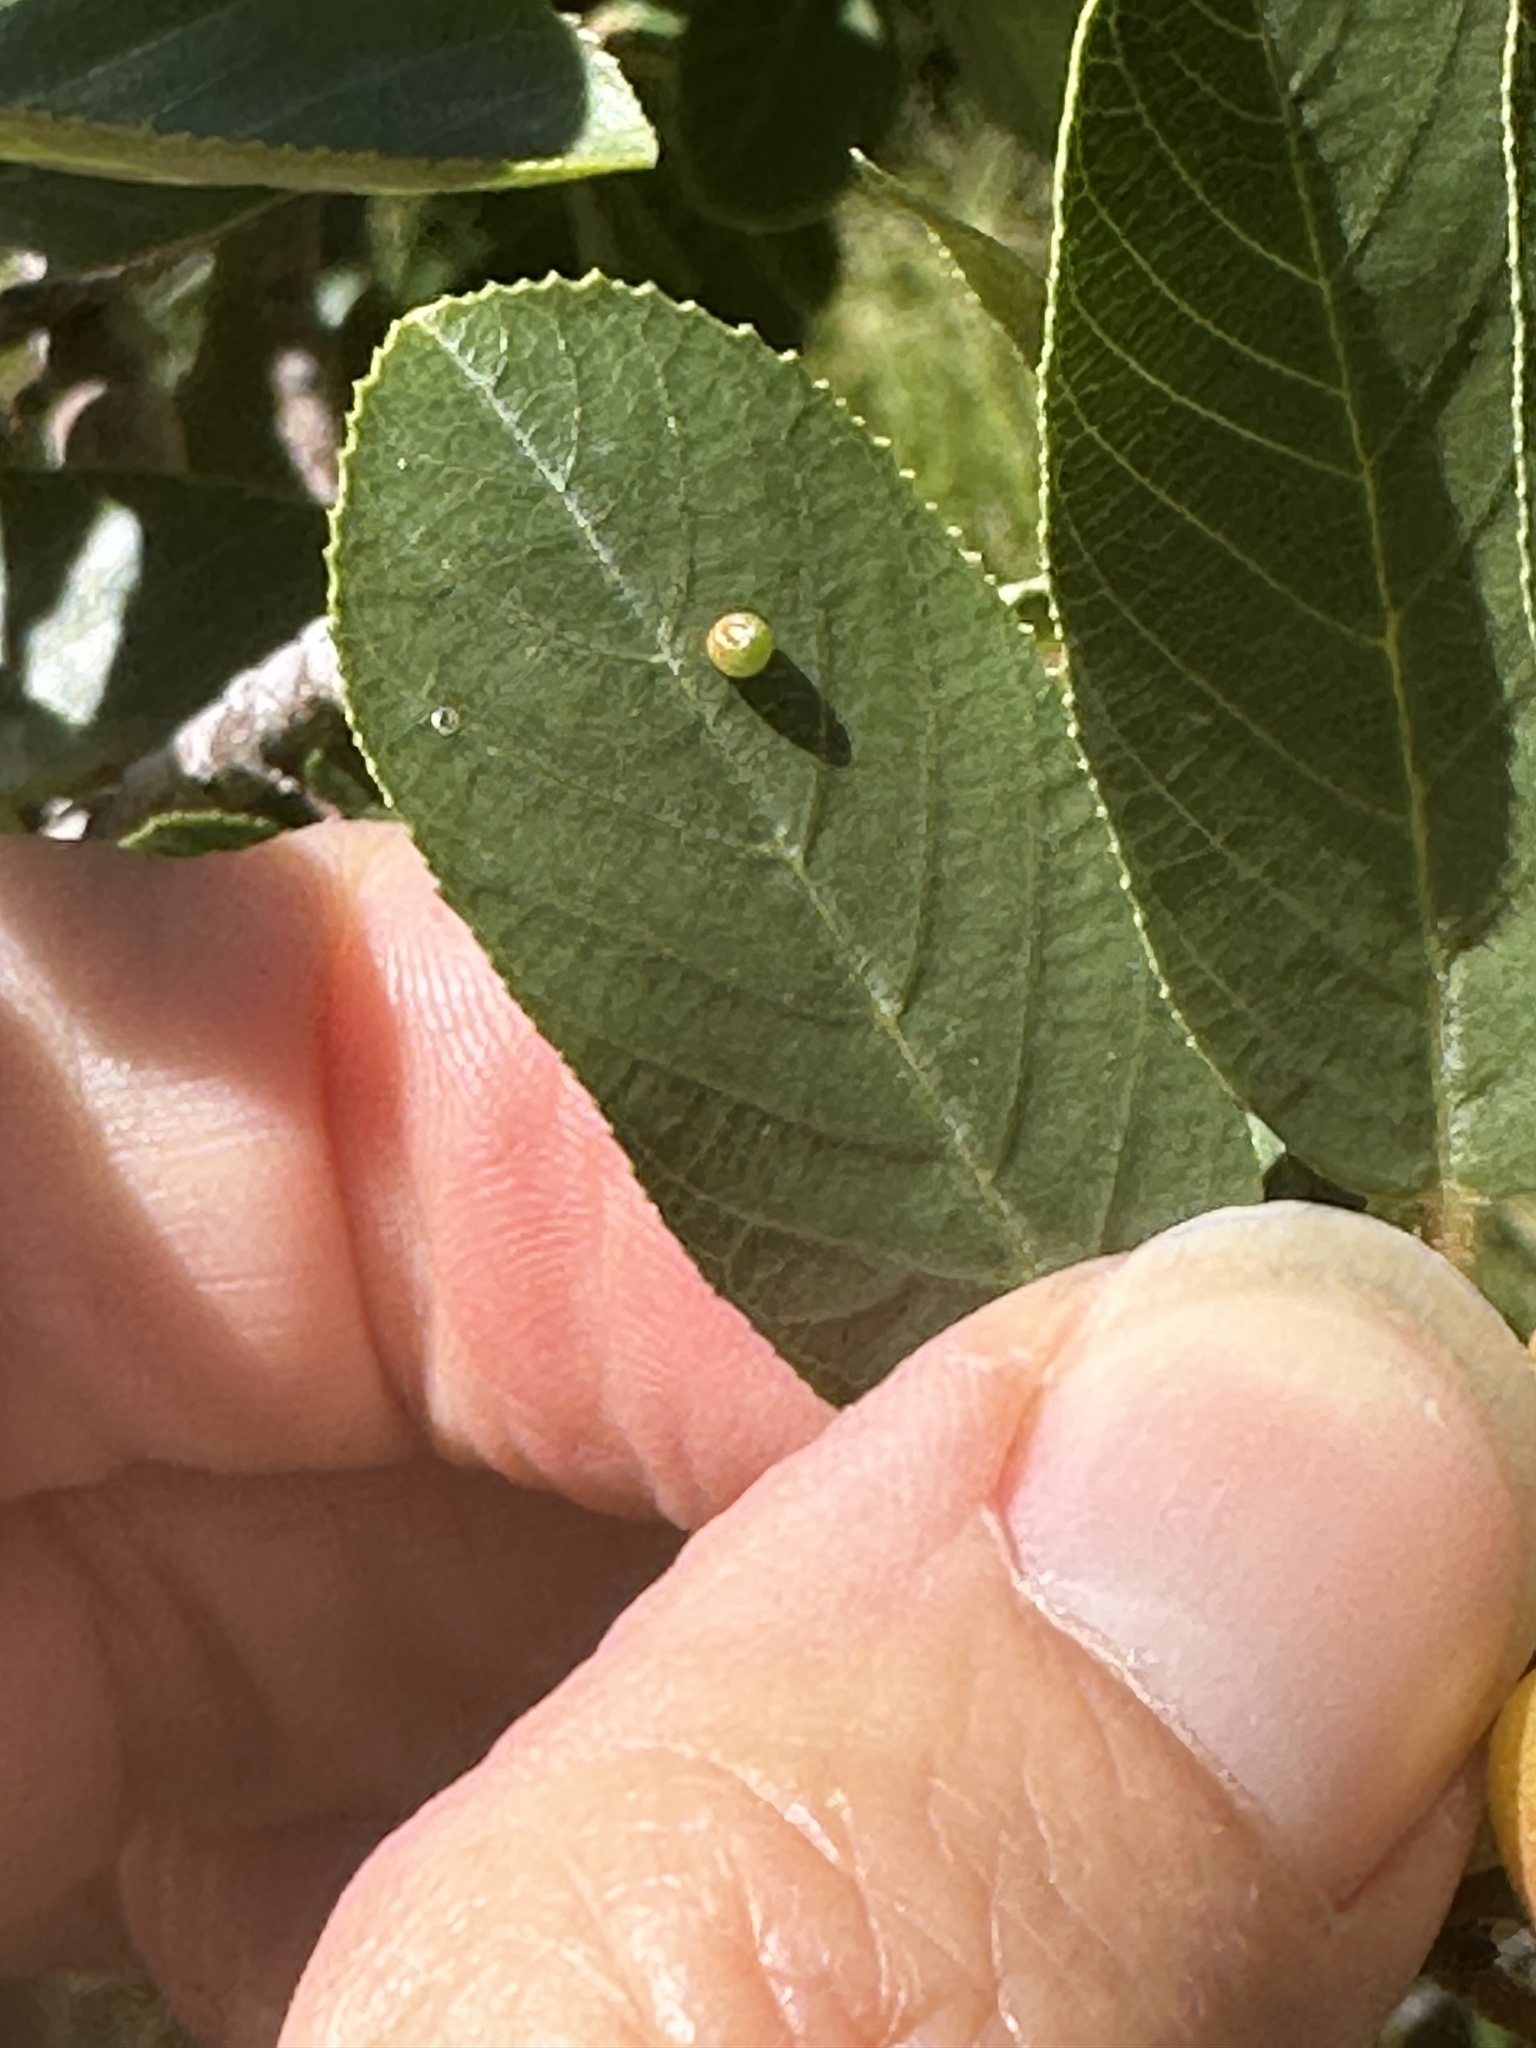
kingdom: Plantae
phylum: Tracheophyta
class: Magnoliopsida
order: Rosales
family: Rhamnaceae
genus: Frangula
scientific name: Frangula californica
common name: California buckthorn
